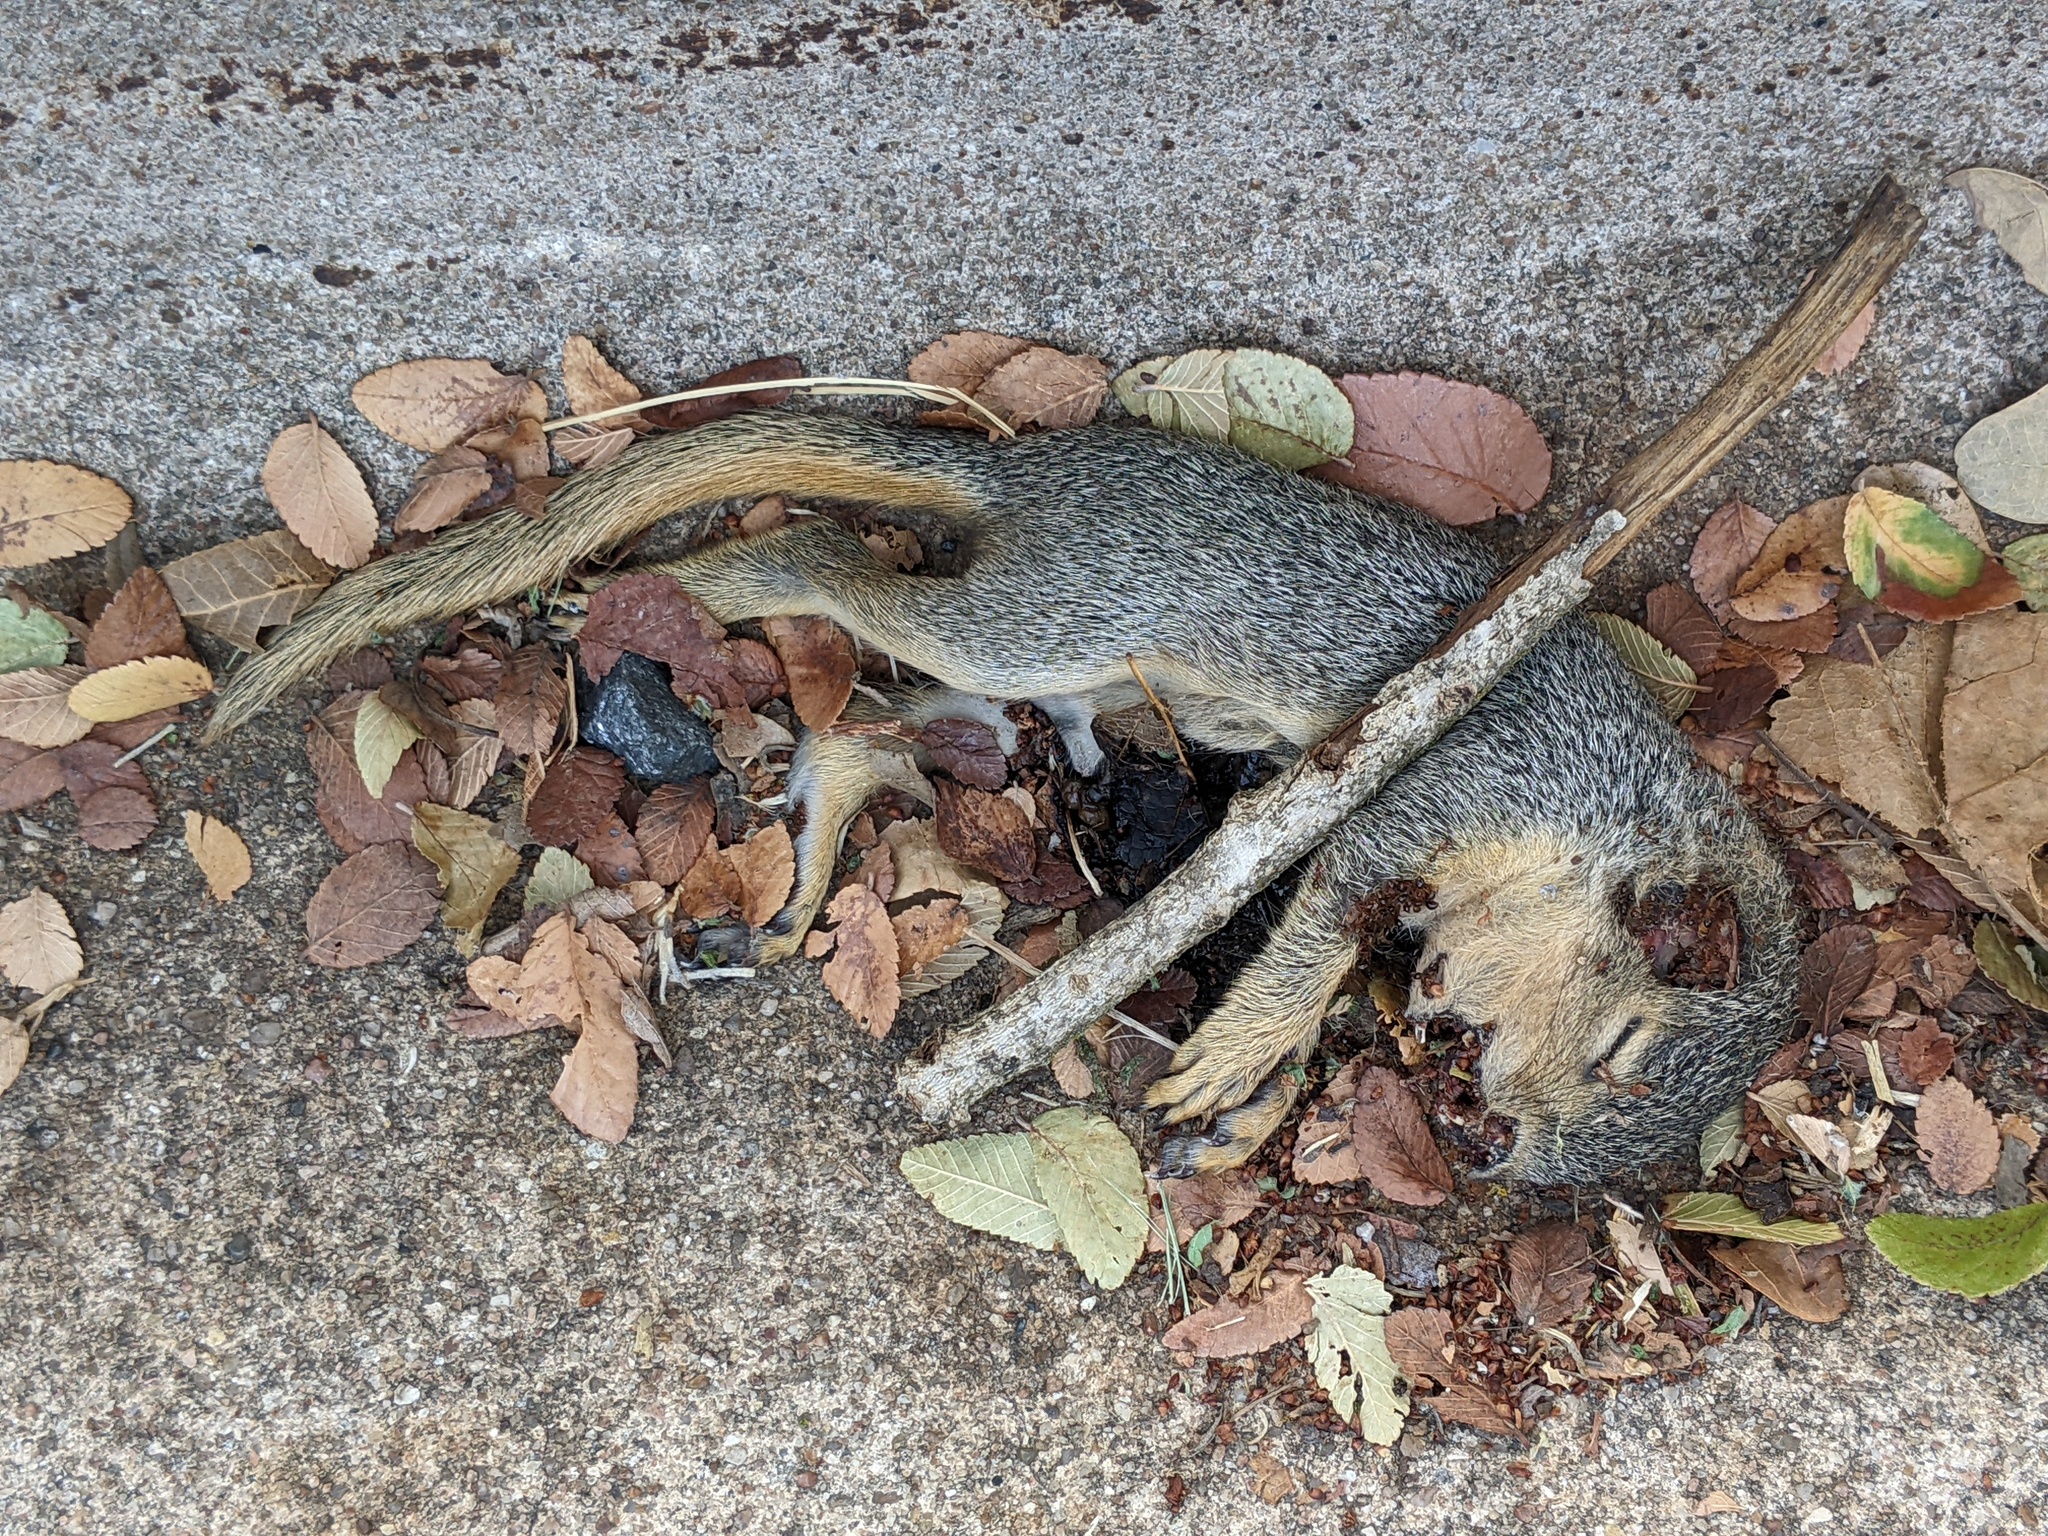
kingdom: Animalia
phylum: Chordata
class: Mammalia
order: Rodentia
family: Sciuridae
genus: Sciurus
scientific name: Sciurus niger
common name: Fox squirrel
